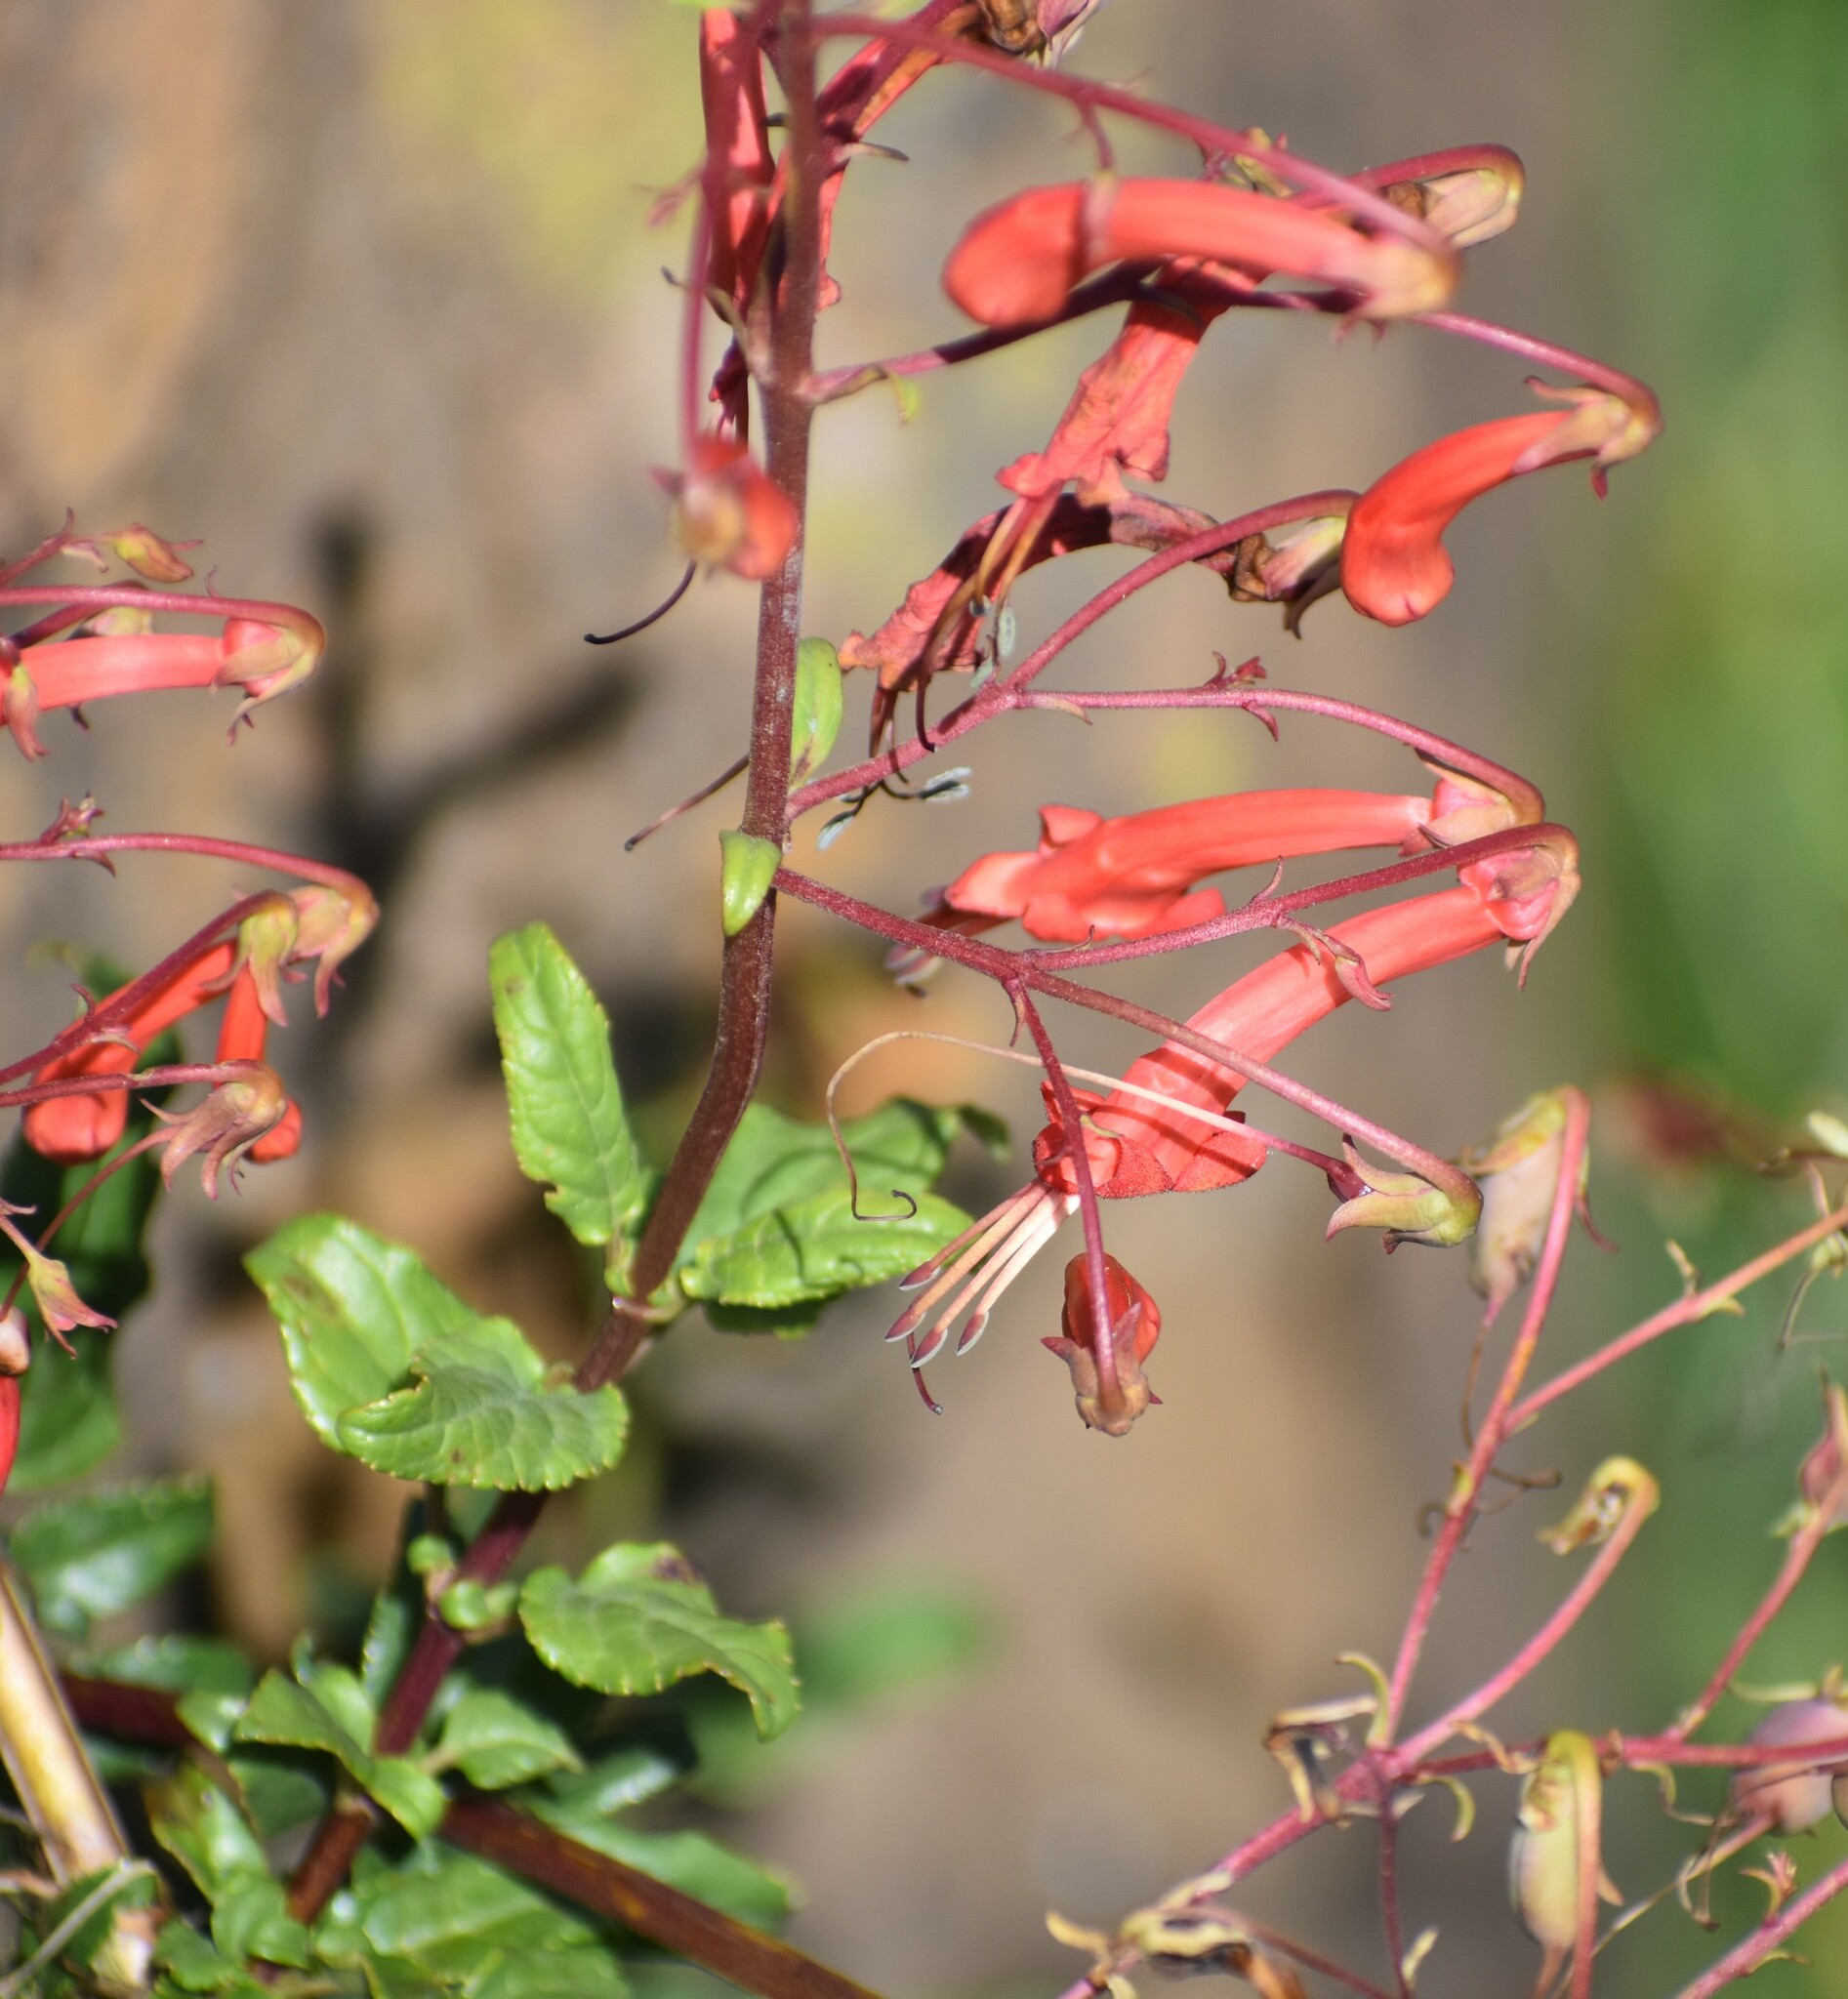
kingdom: Plantae
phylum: Tracheophyta
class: Magnoliopsida
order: Lamiales
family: Scrophulariaceae
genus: Phygelius
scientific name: Phygelius capensis
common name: Cape figwort
